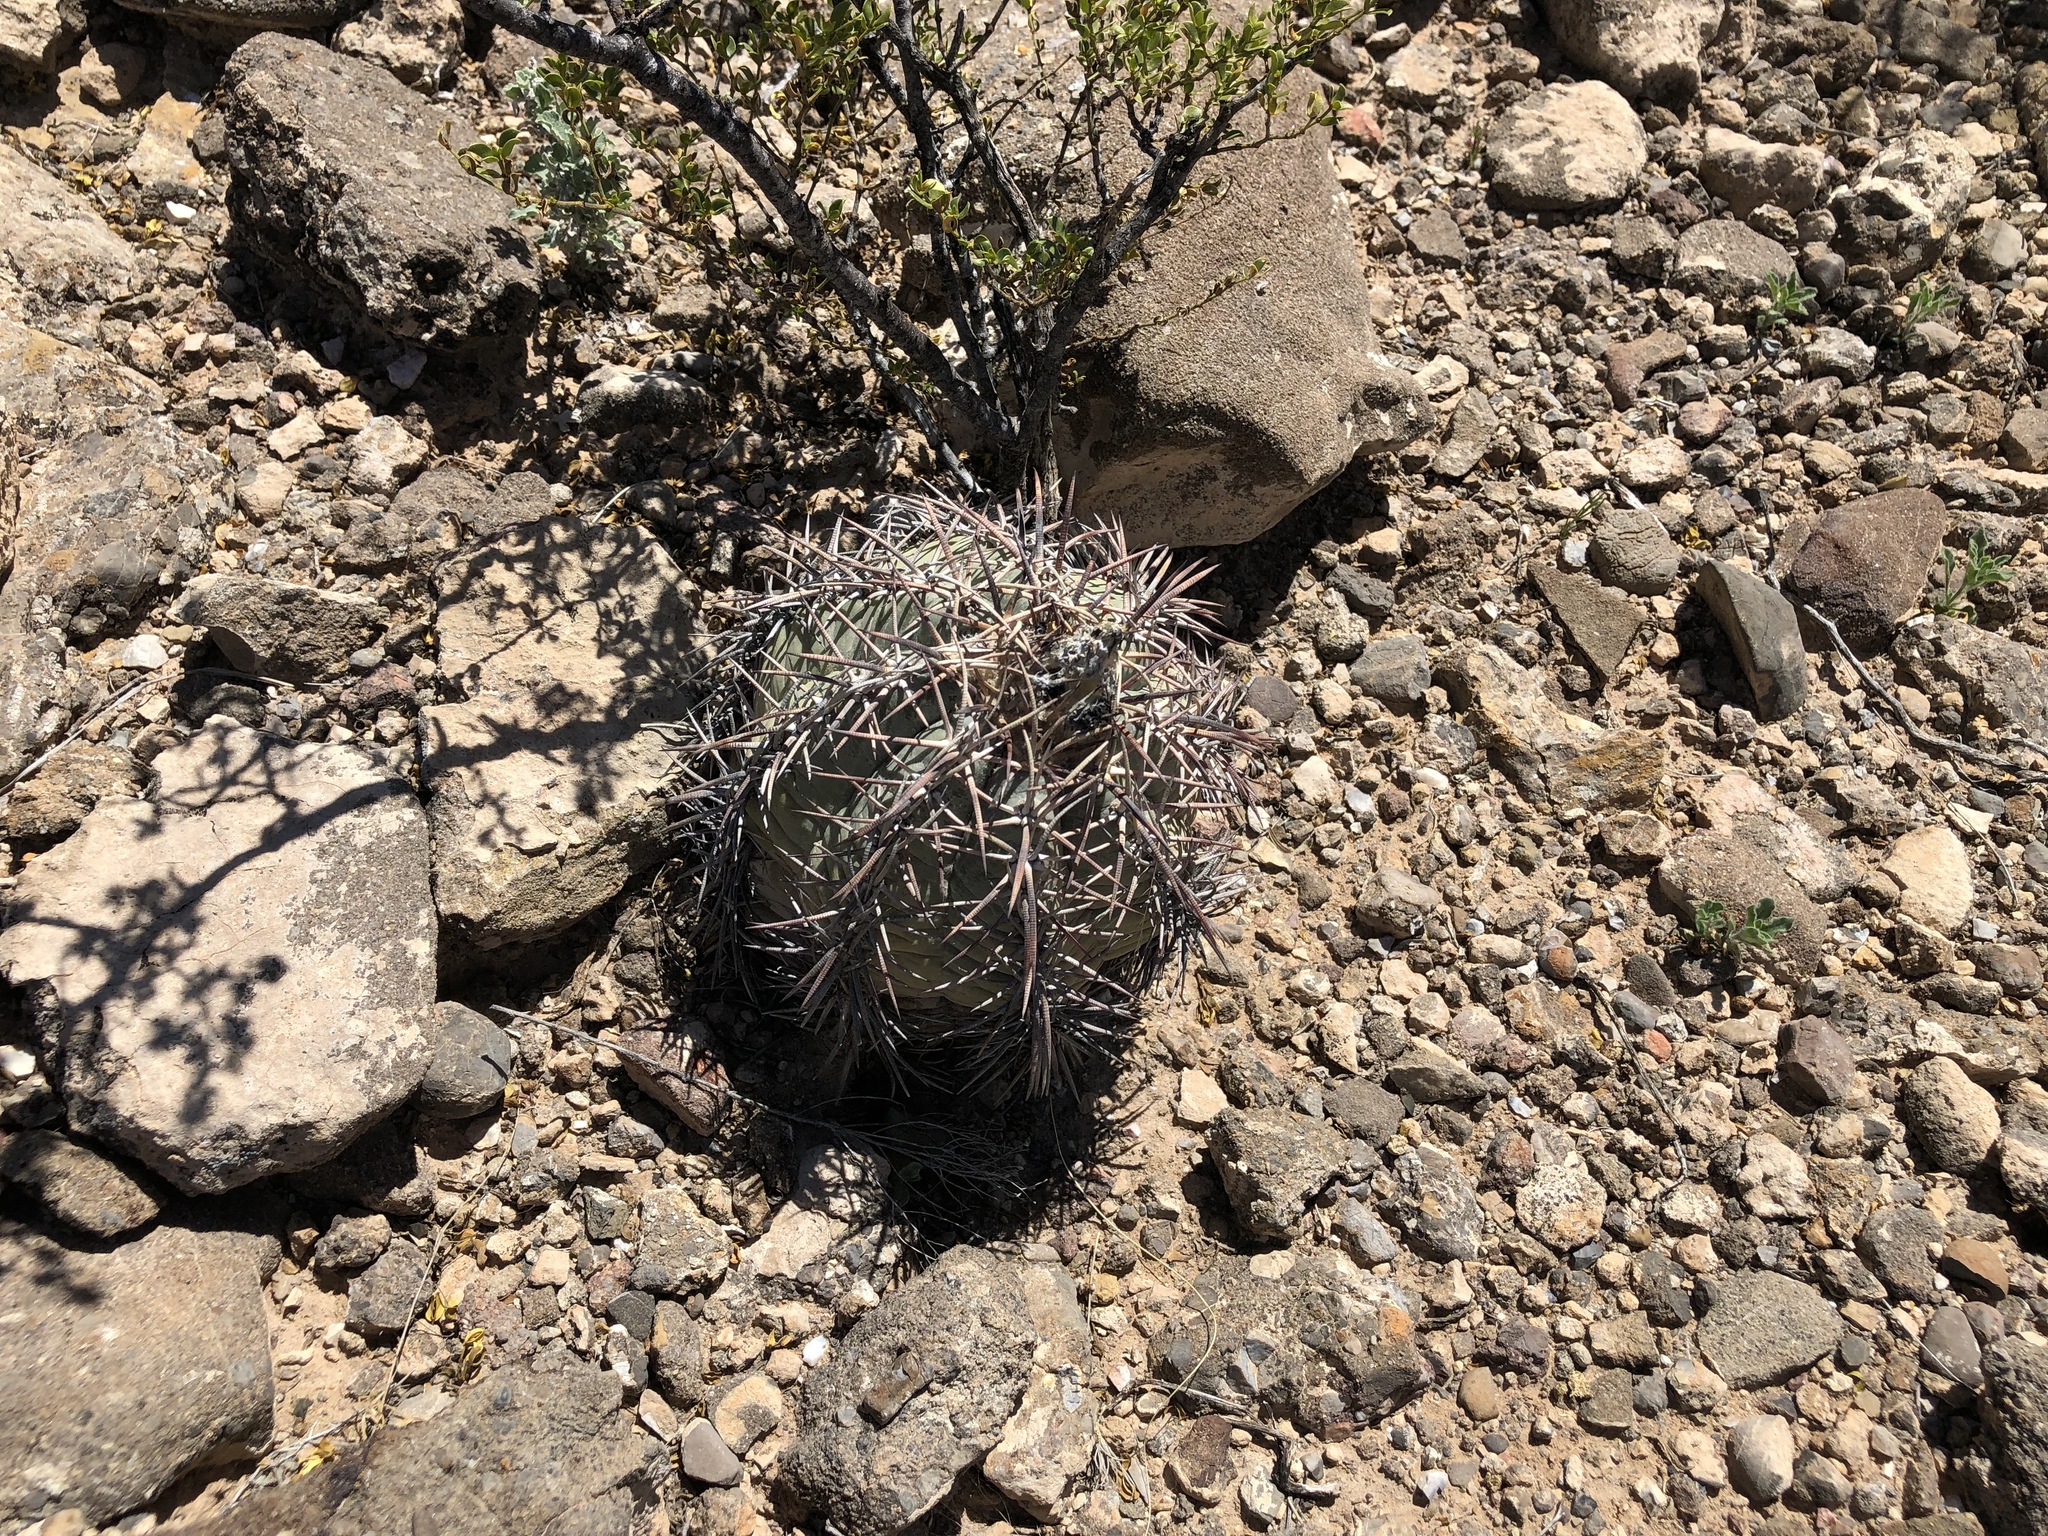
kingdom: Plantae
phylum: Tracheophyta
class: Magnoliopsida
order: Caryophyllales
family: Cactaceae
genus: Echinocactus
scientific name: Echinocactus horizonthalonius
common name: Devilshead
